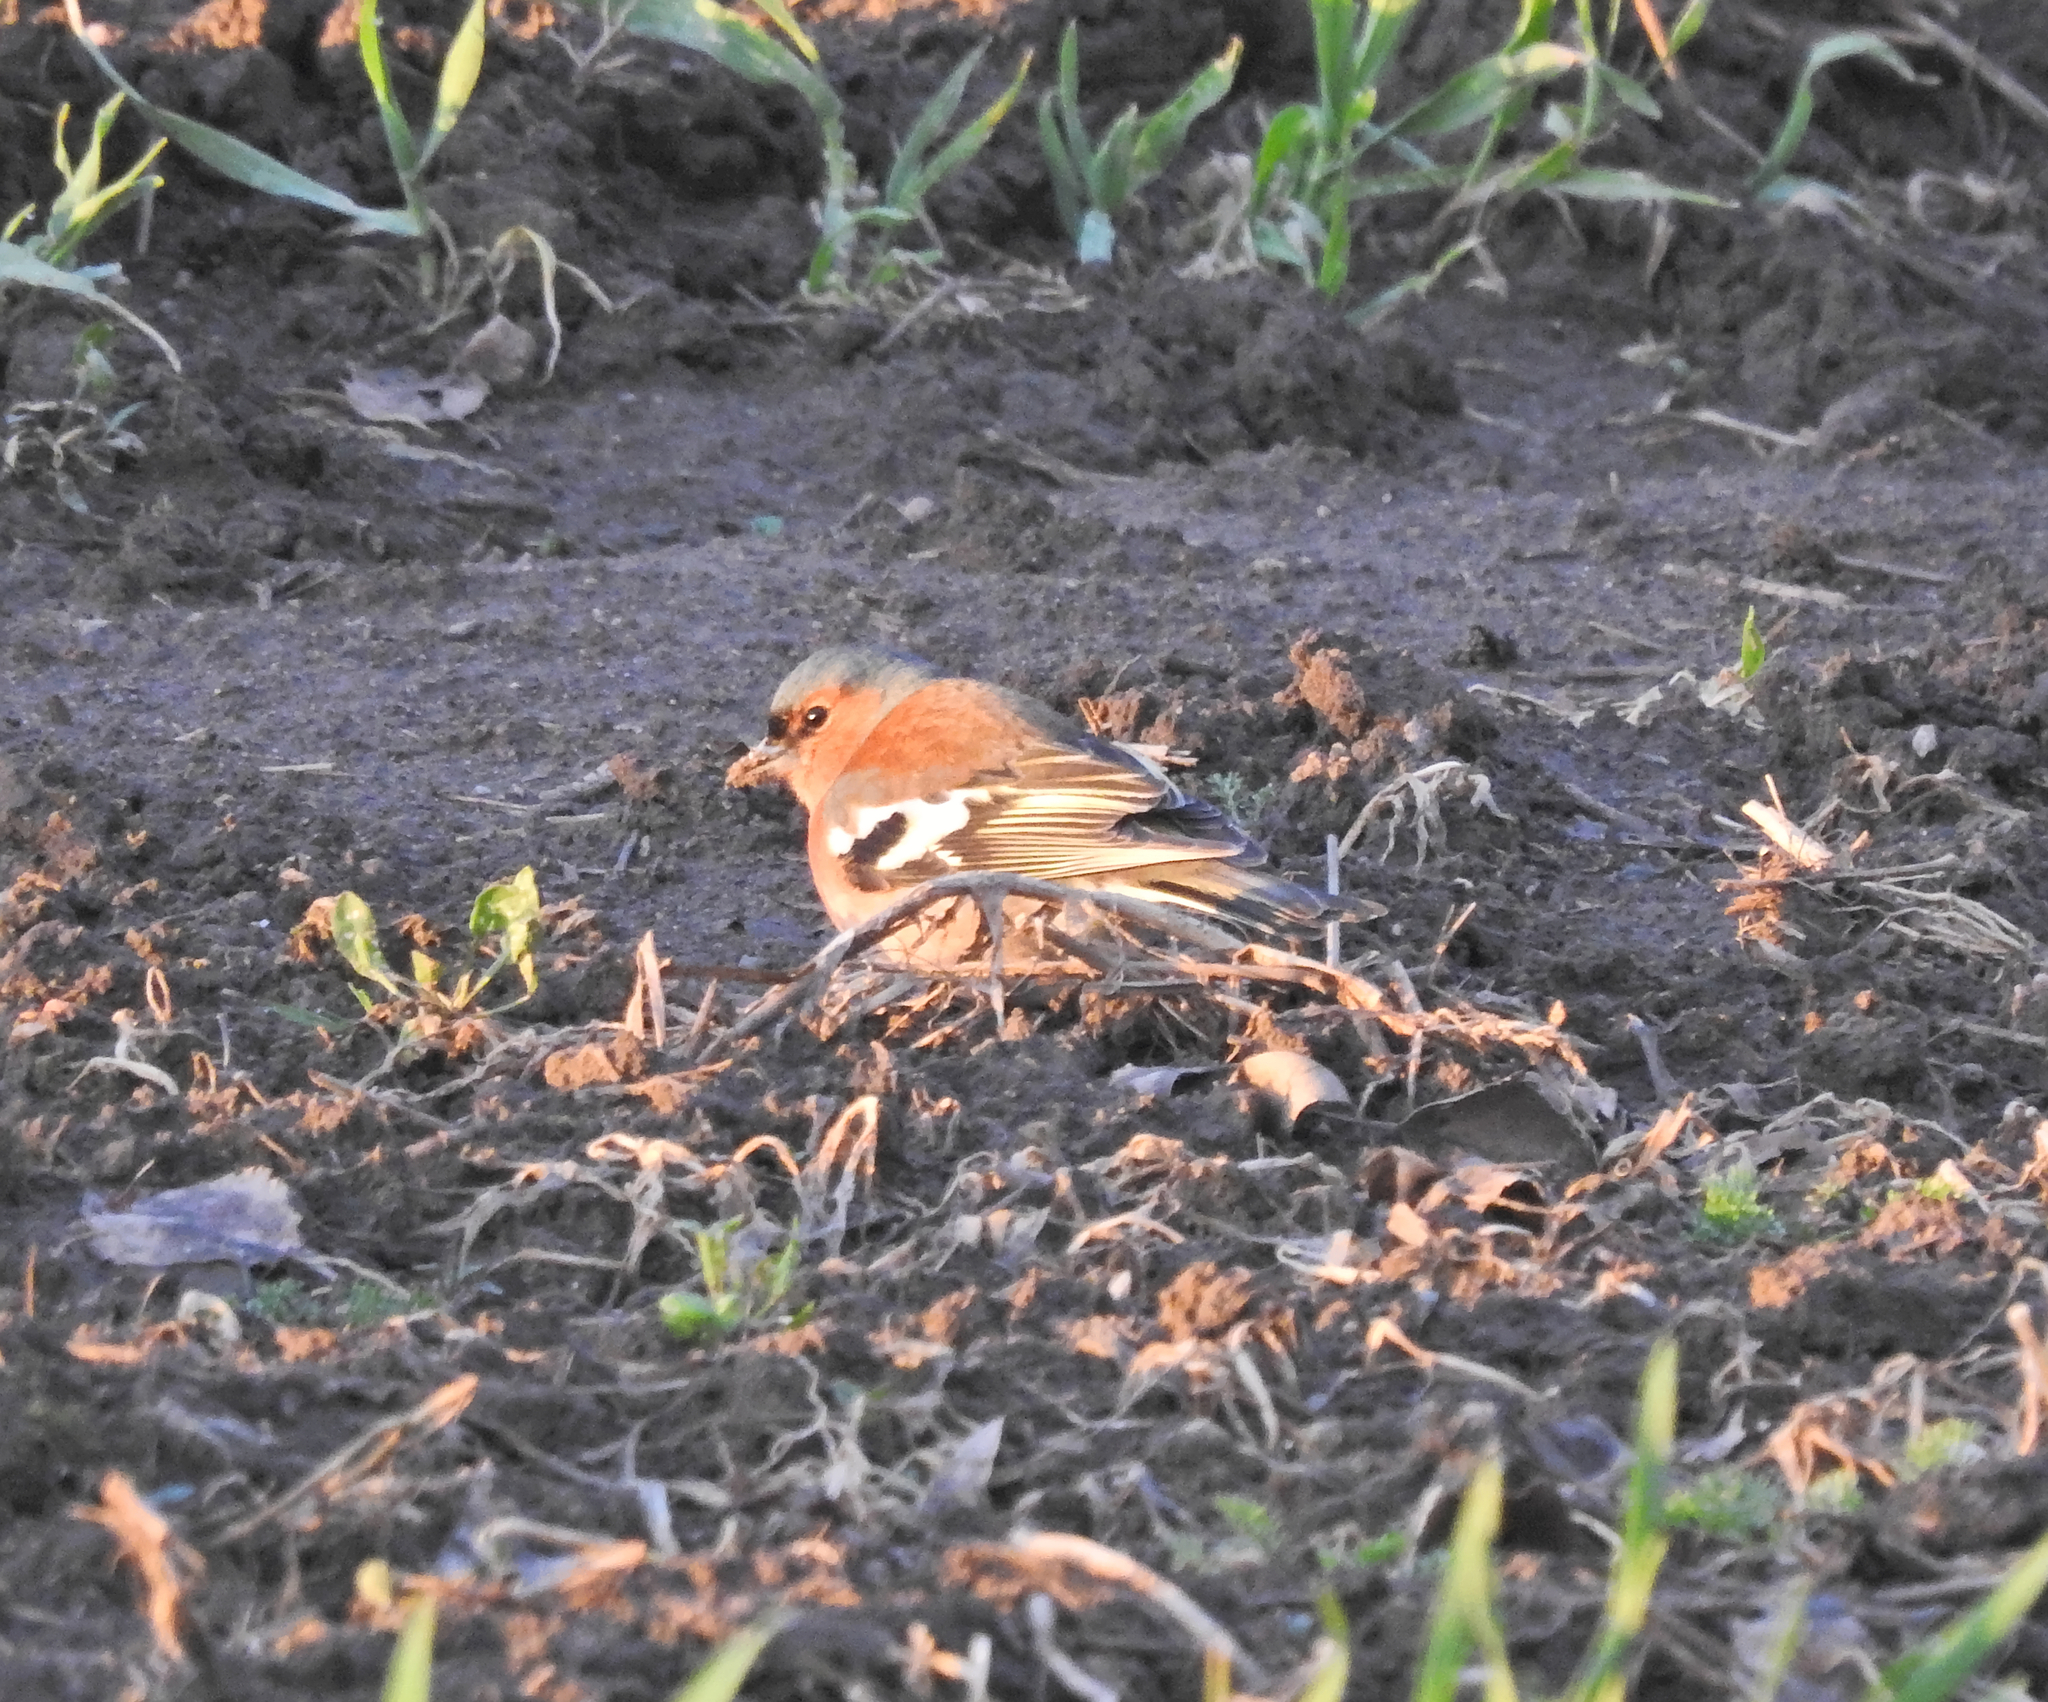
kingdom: Animalia
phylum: Chordata
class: Aves
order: Passeriformes
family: Fringillidae
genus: Fringilla
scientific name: Fringilla coelebs
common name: Common chaffinch
